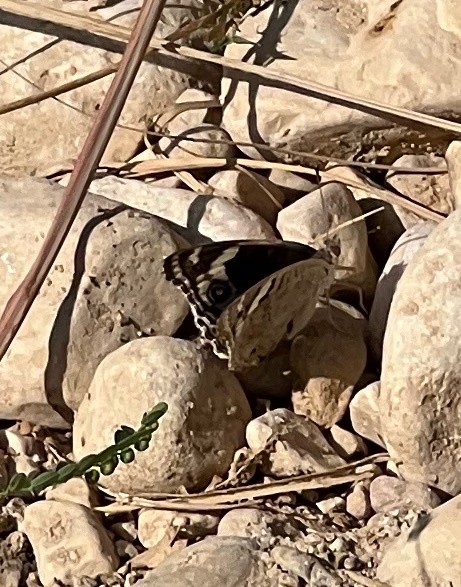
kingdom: Animalia
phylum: Arthropoda
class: Insecta
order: Lepidoptera
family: Nymphalidae
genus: Junonia
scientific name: Junonia orithya
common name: Blue pansy
